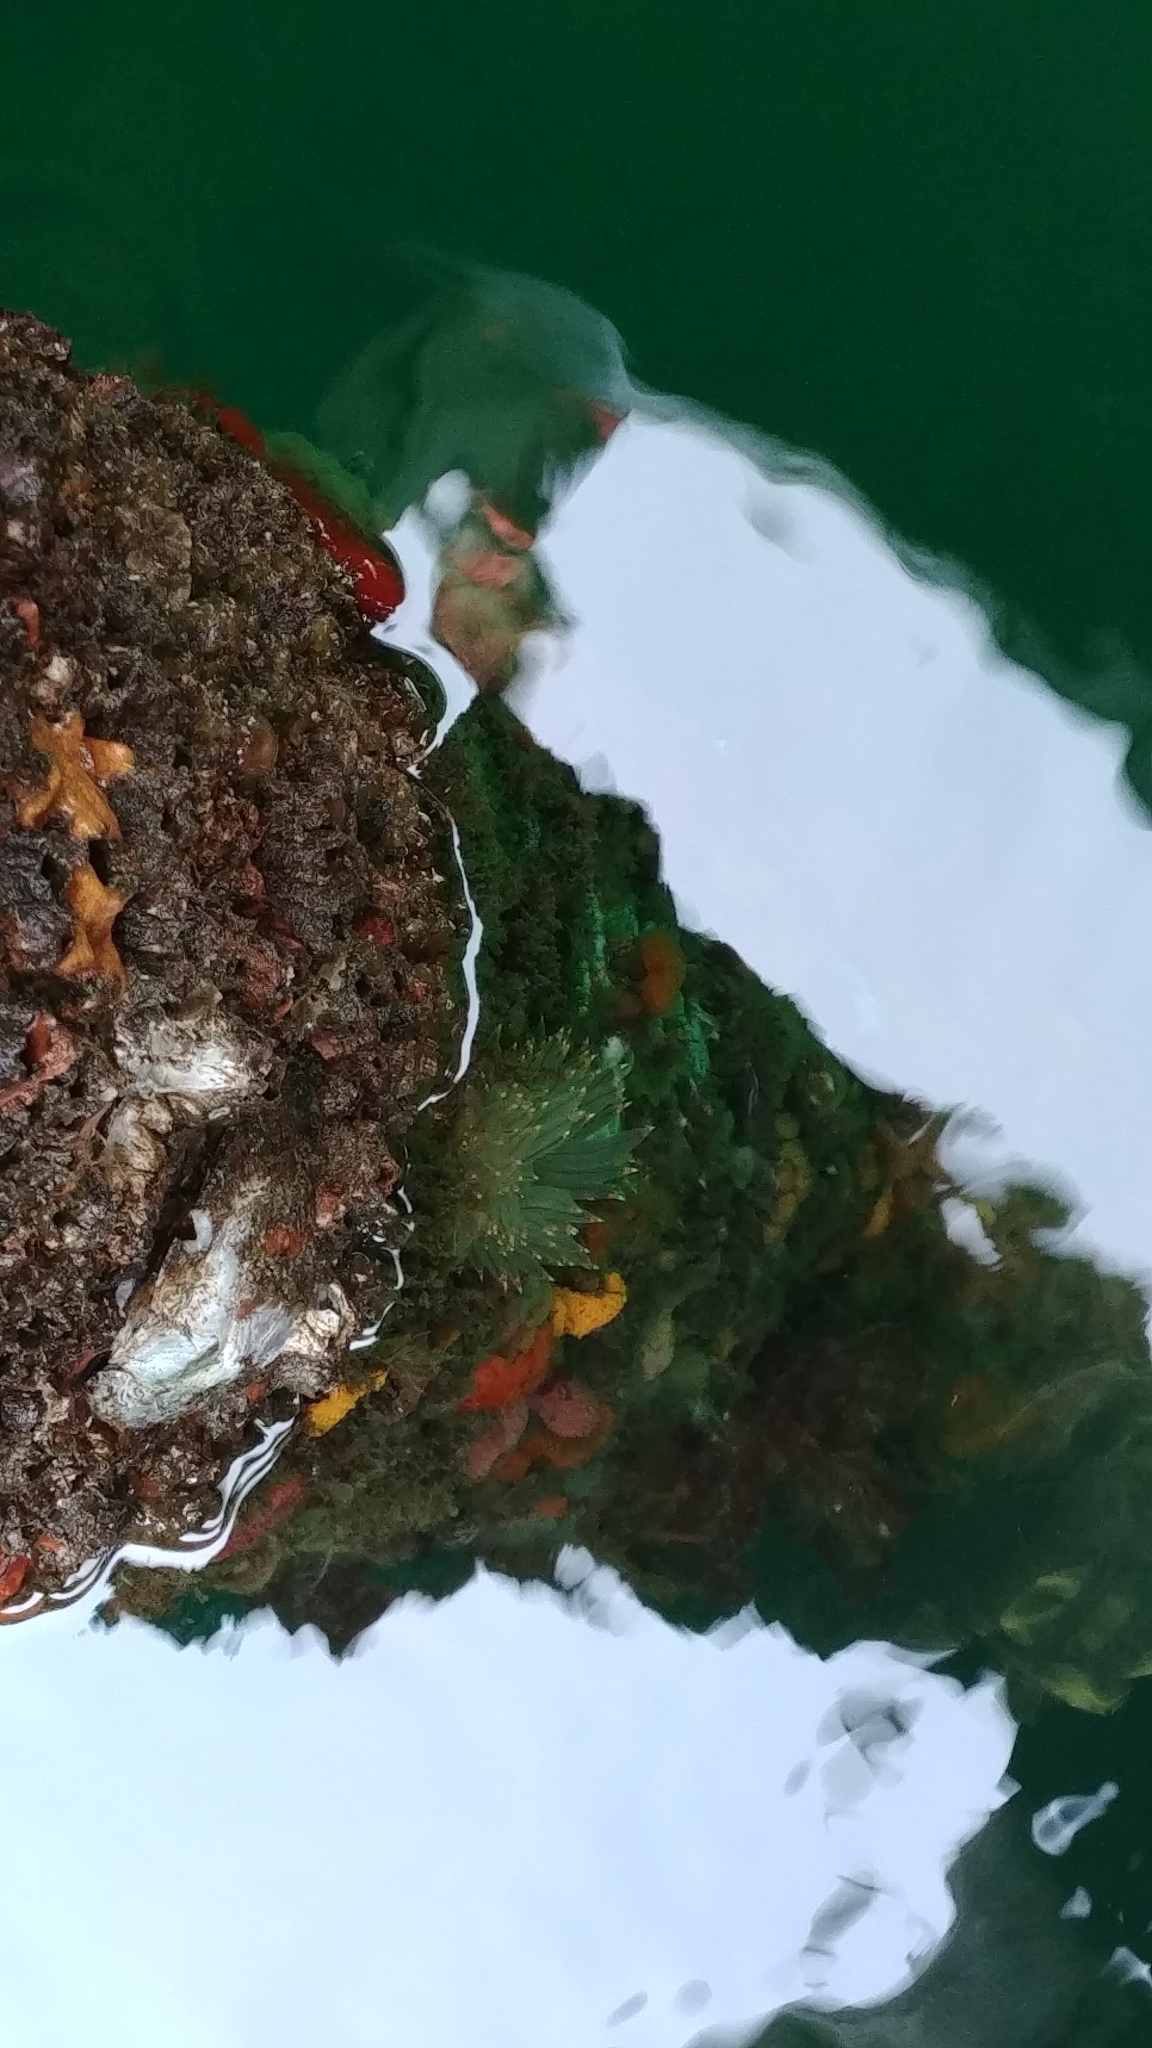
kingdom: Animalia
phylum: Mollusca
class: Gastropoda
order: Nudibranchia
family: Janolidae
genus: Antiopella
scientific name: Antiopella fusca
